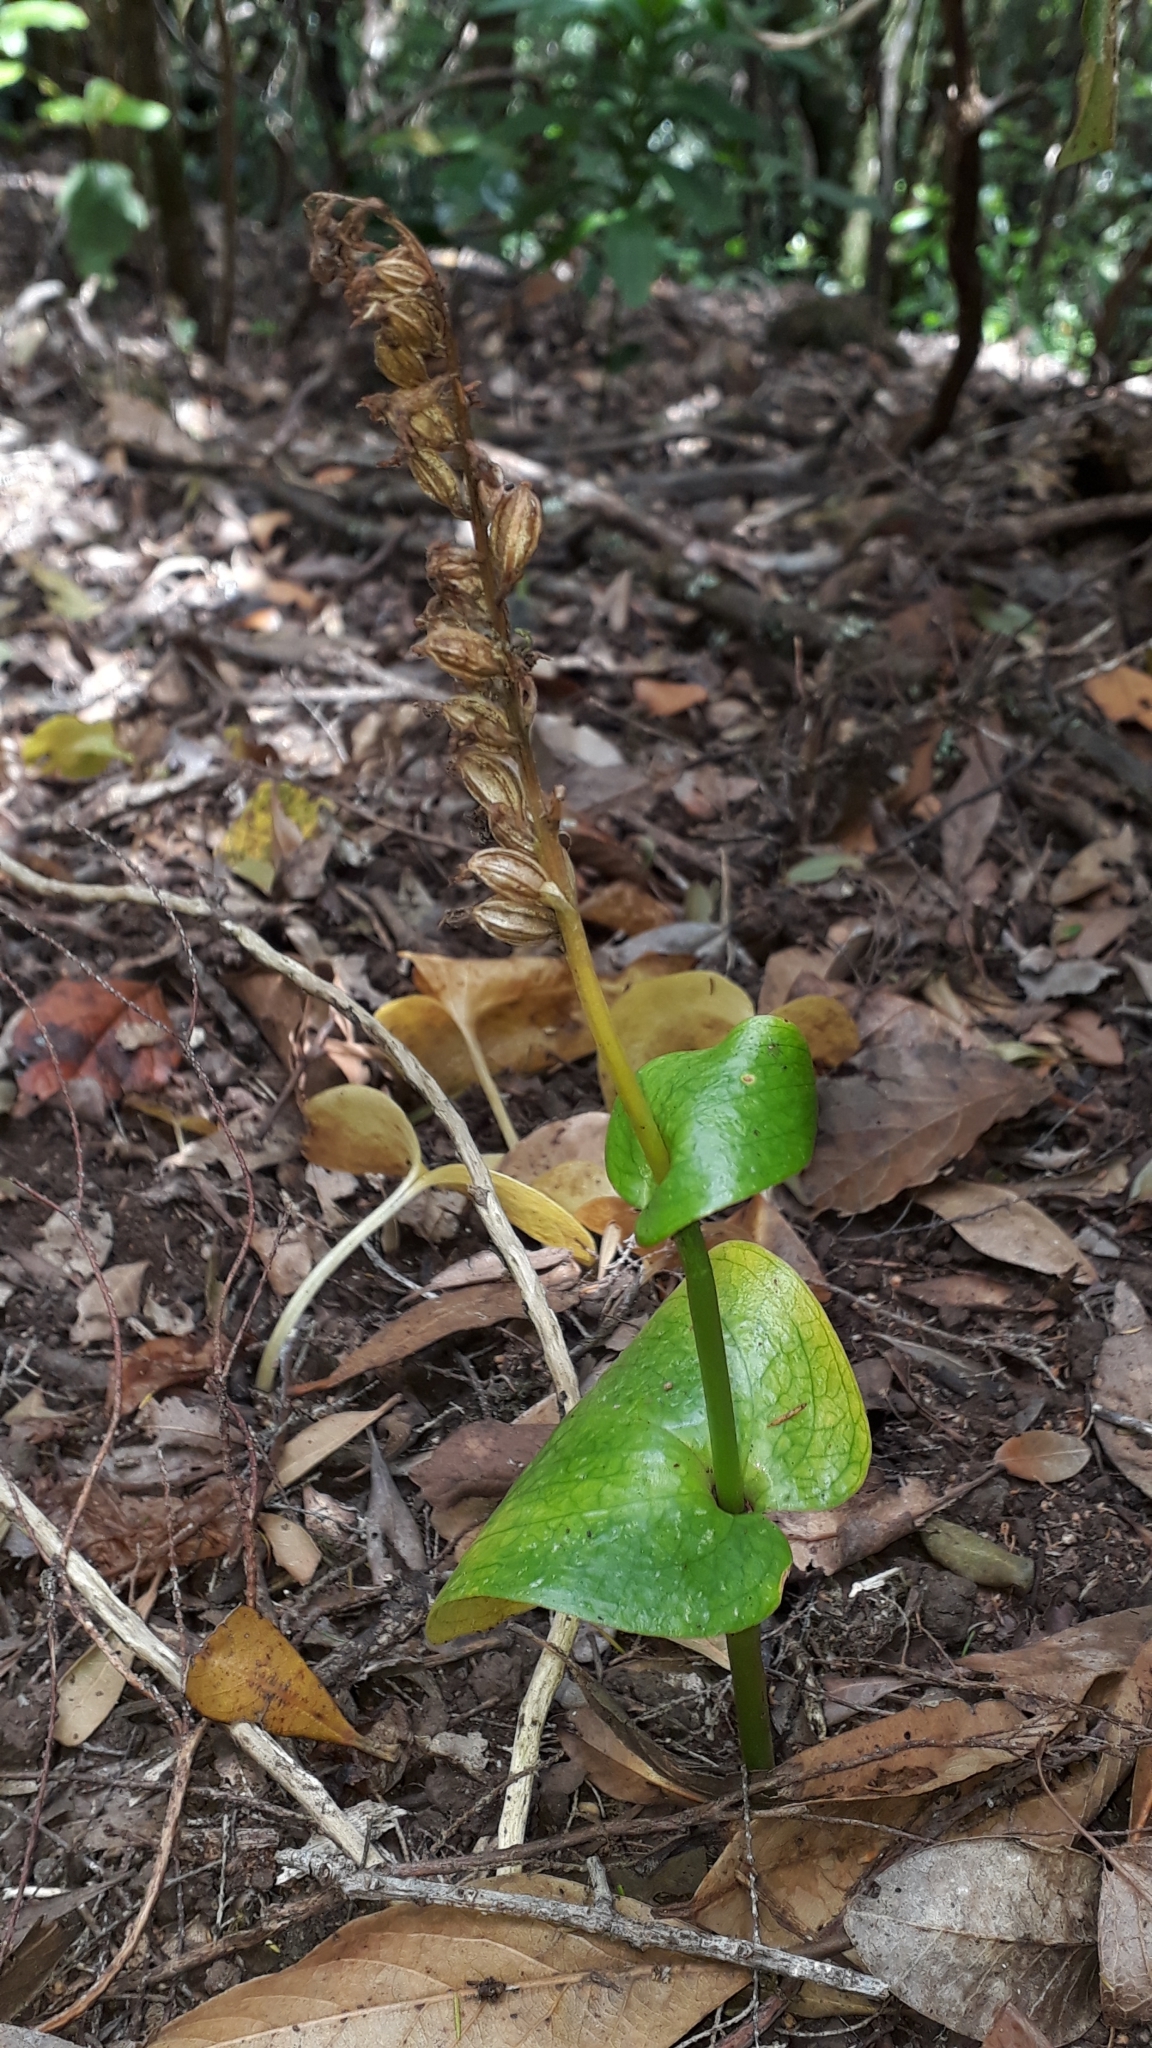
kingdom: Plantae
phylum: Tracheophyta
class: Liliopsida
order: Asparagales
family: Orchidaceae
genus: Gennaria
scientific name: Gennaria diphylla
